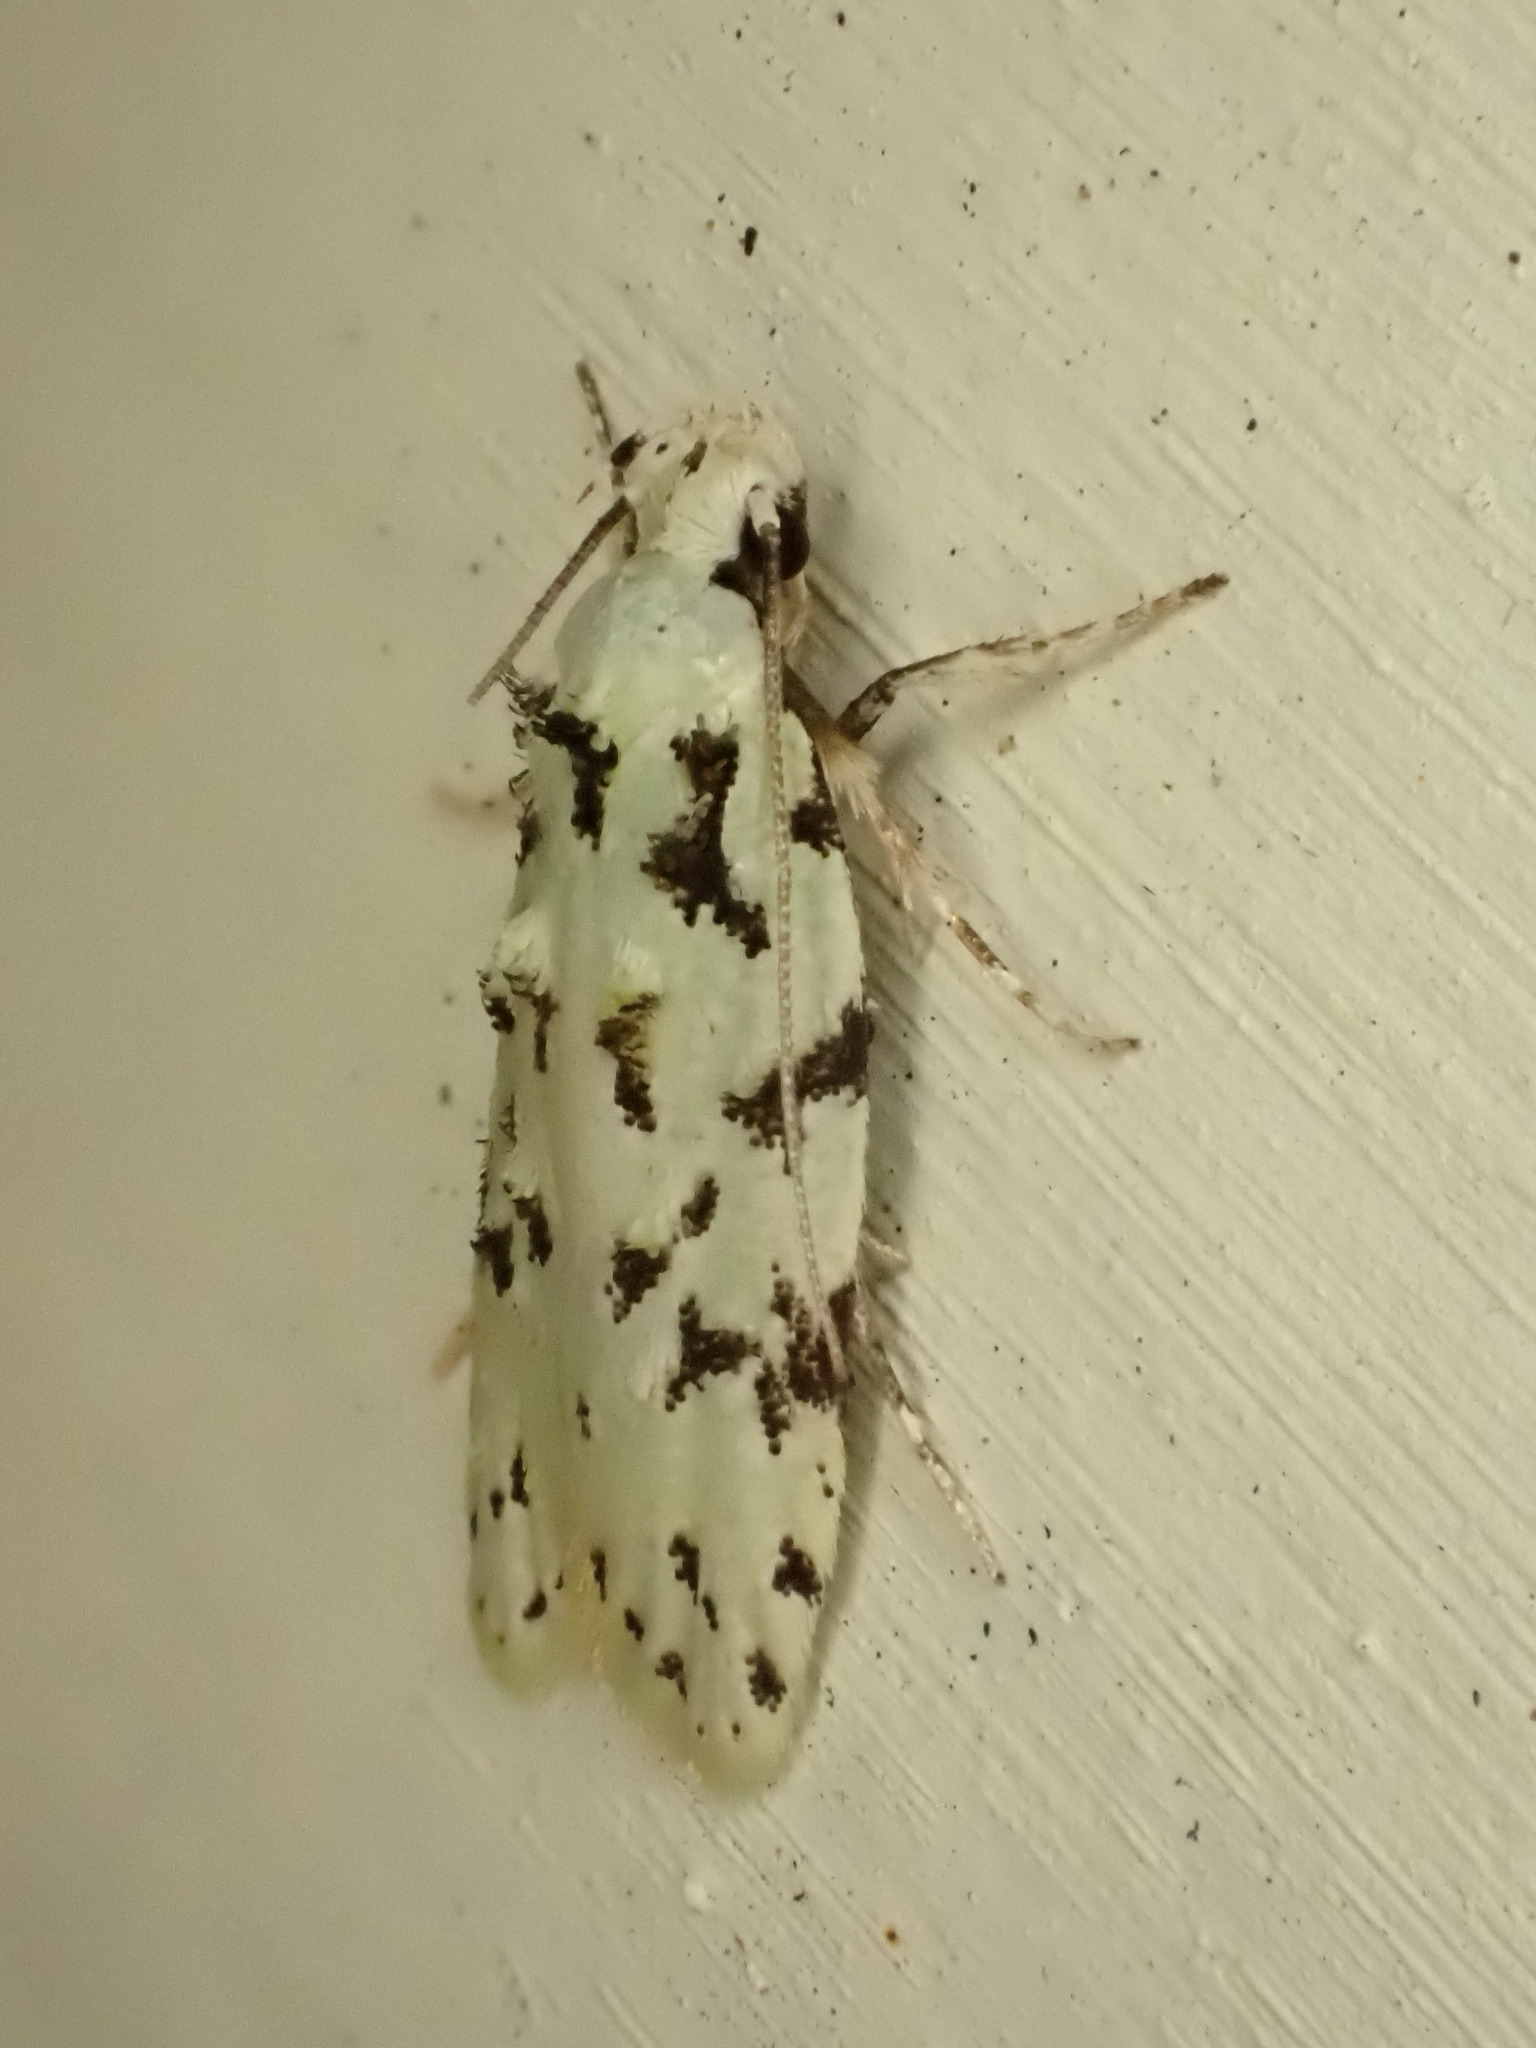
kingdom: Animalia
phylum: Arthropoda
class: Insecta
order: Lepidoptera
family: Oecophoridae
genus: Izatha
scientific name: Izatha peroneanella
